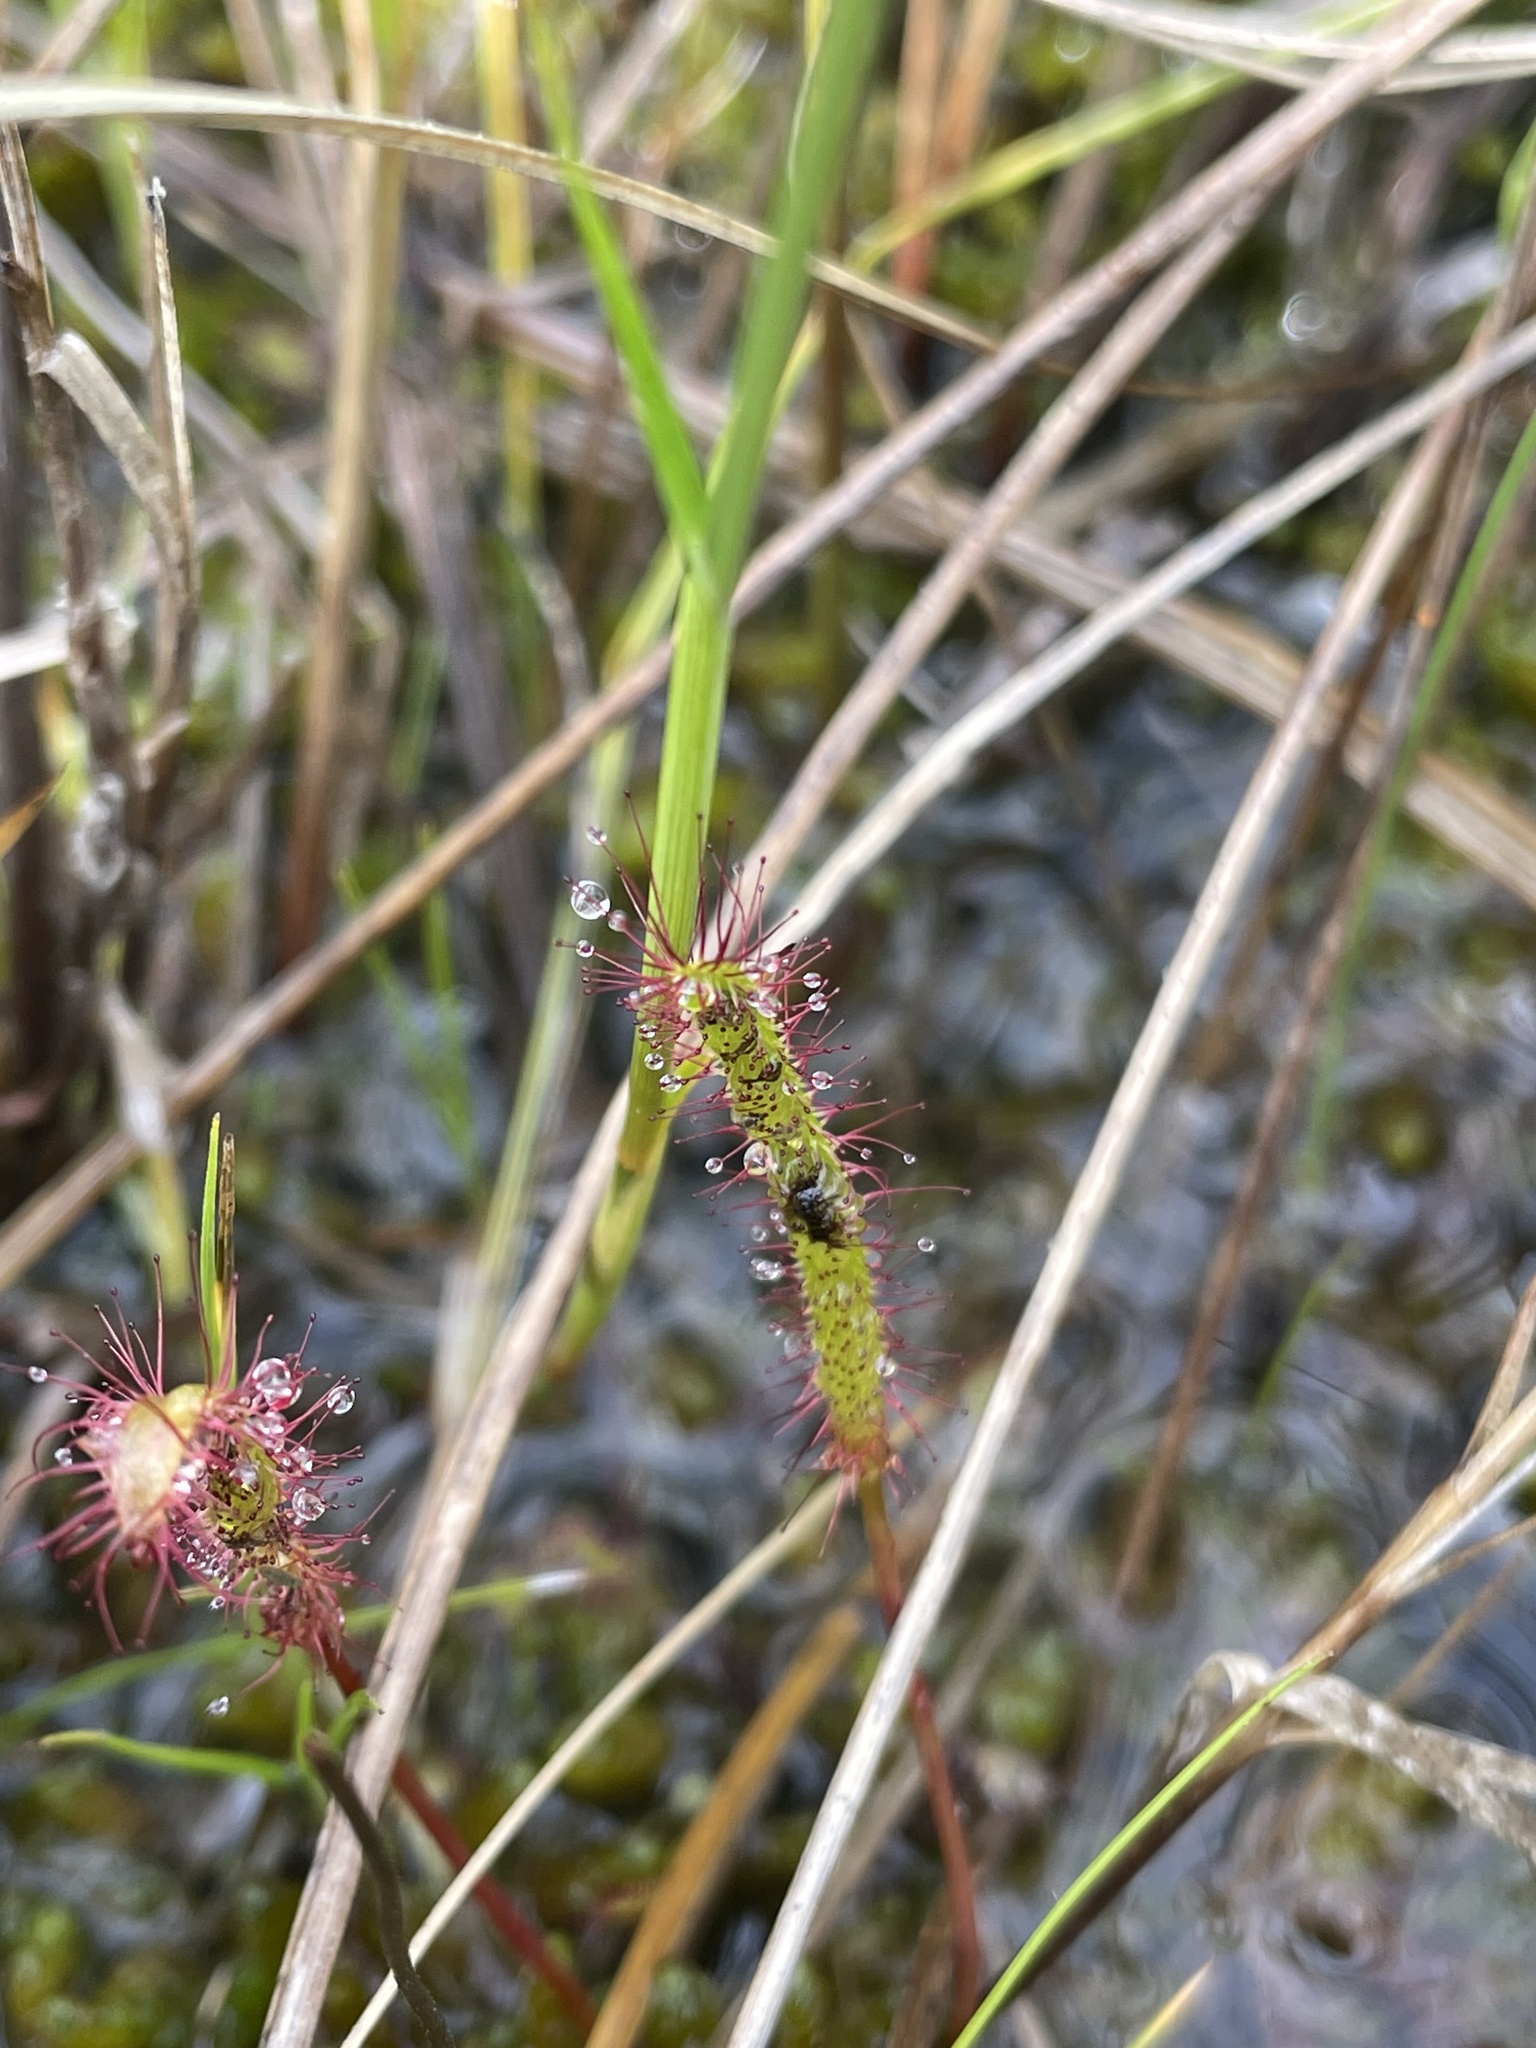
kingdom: Plantae
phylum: Tracheophyta
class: Magnoliopsida
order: Caryophyllales
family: Droseraceae
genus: Drosera
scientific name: Drosera linearis
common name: Linear-leaved sundew
